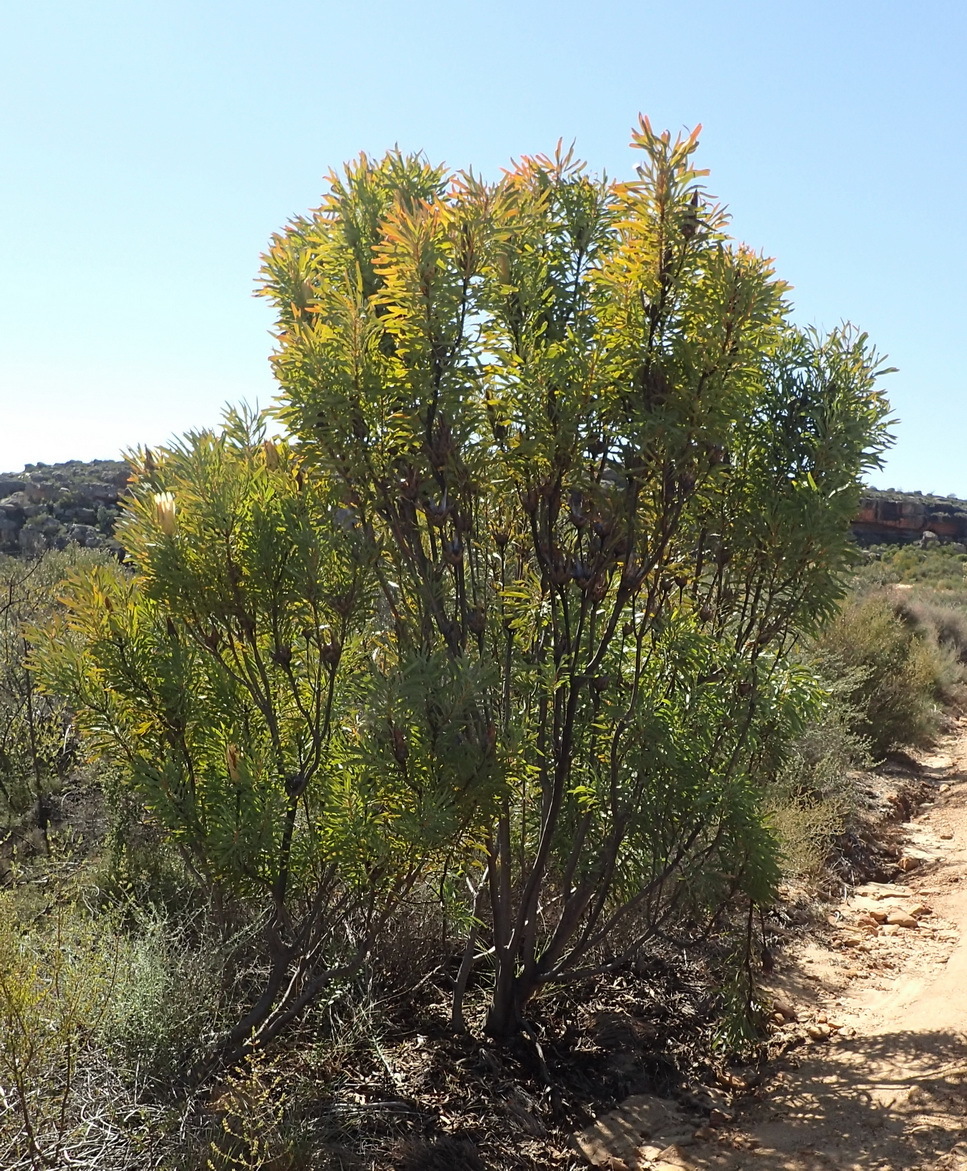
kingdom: Plantae
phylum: Tracheophyta
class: Magnoliopsida
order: Proteales
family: Proteaceae
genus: Protea
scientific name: Protea repens
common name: Sugarbush
